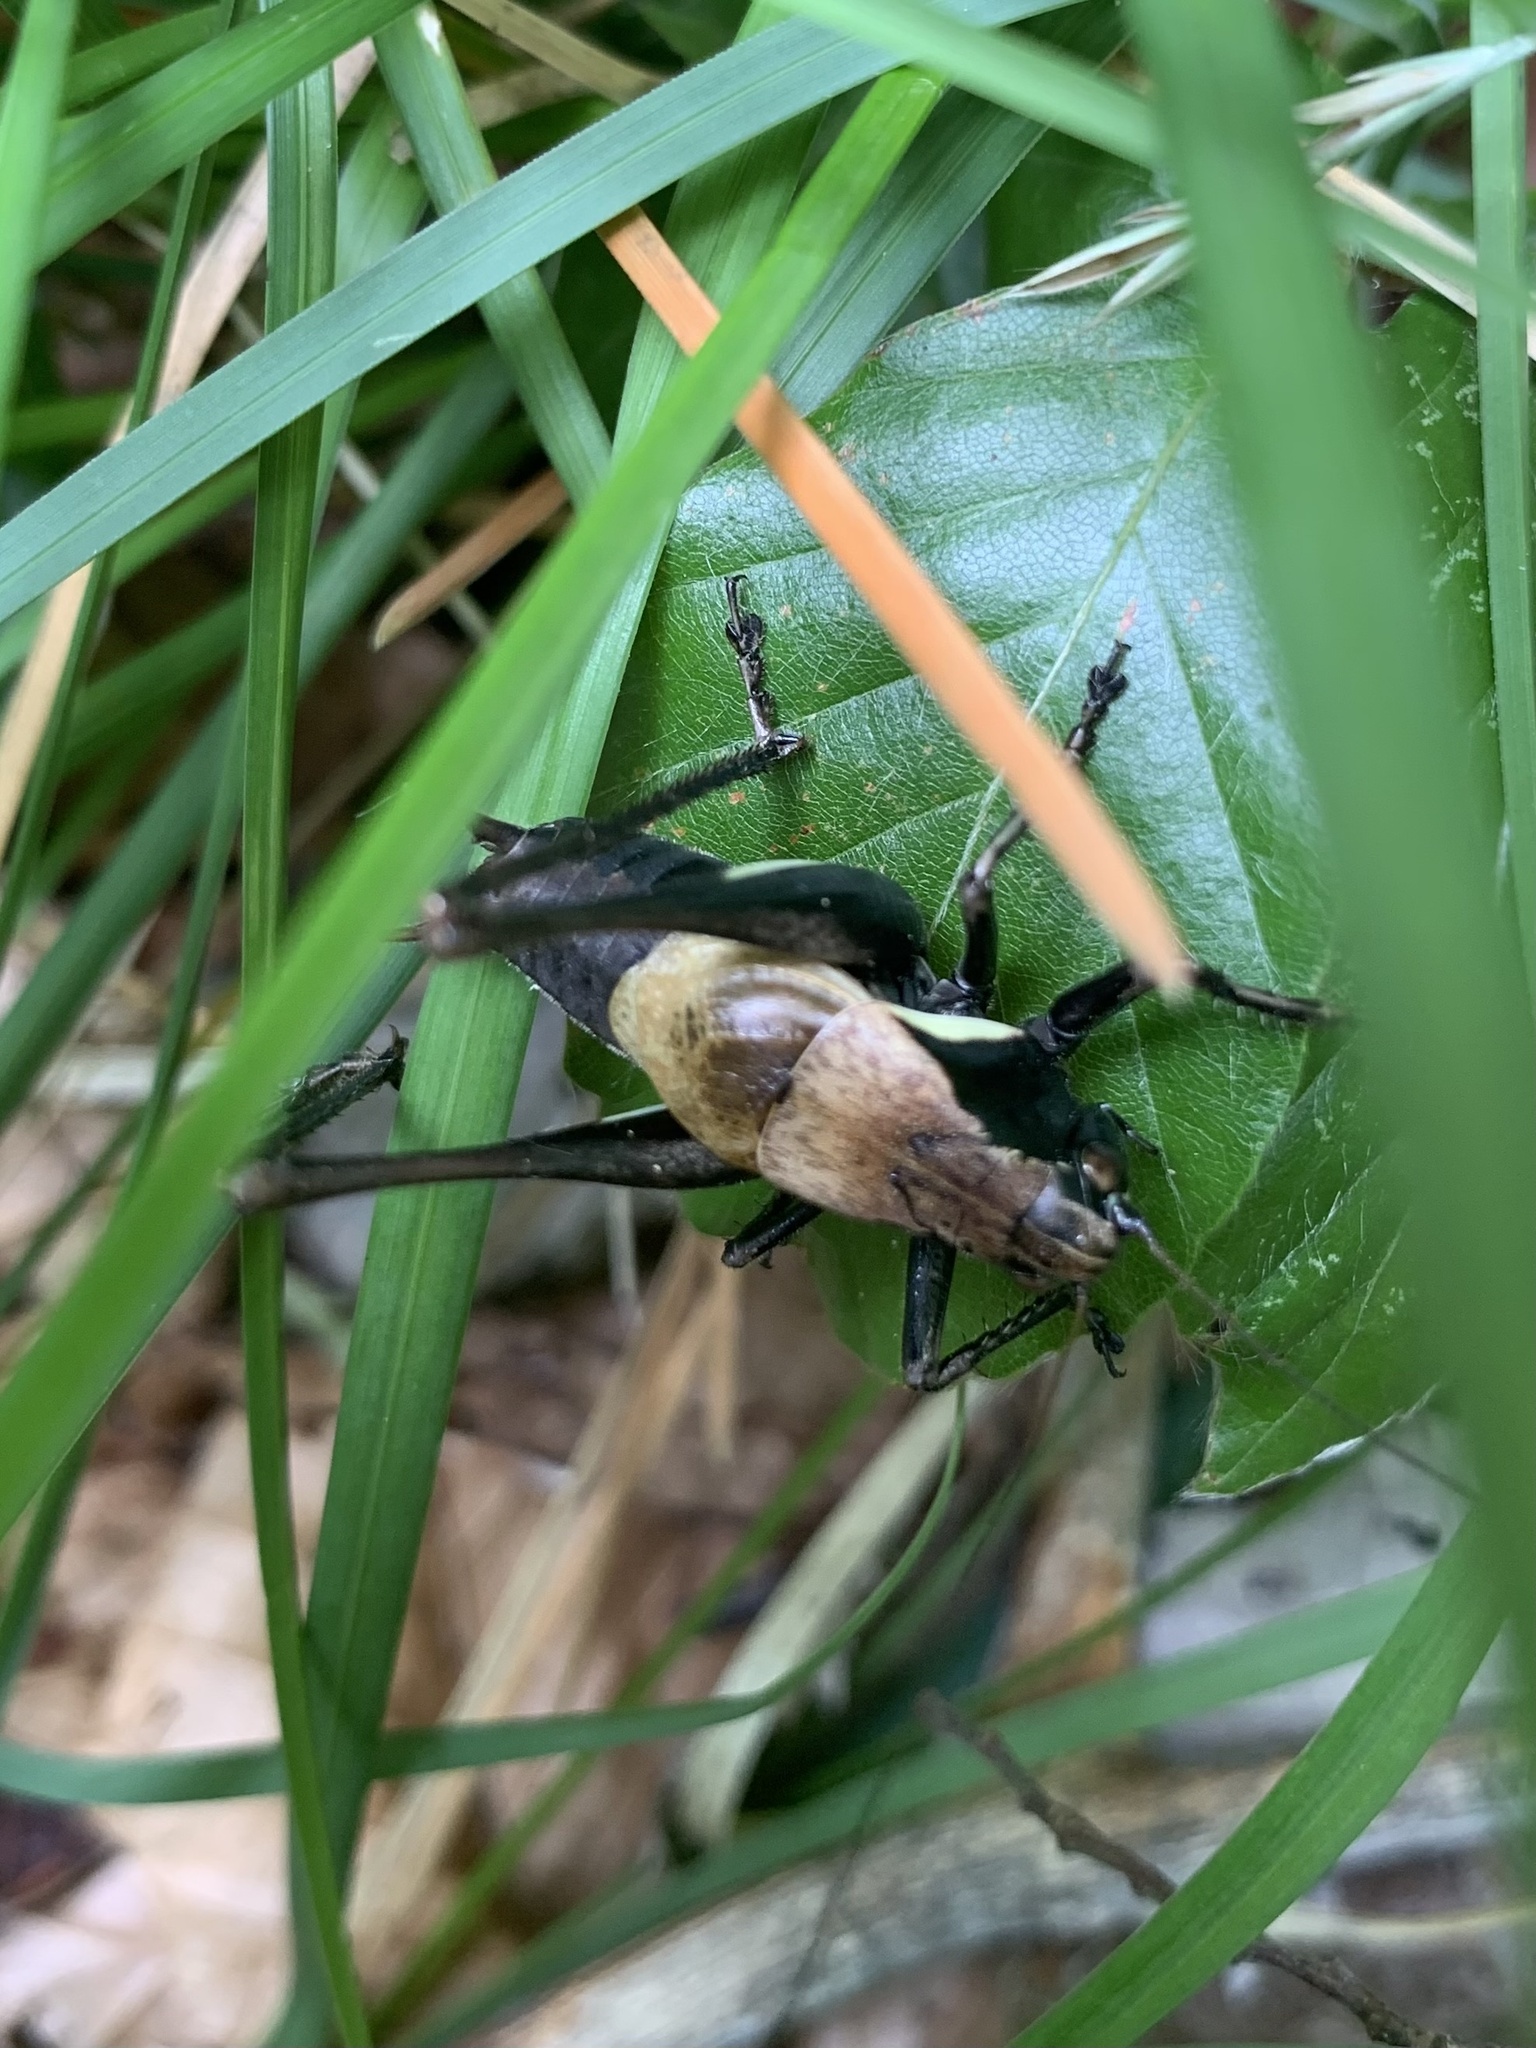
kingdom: Animalia
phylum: Arthropoda
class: Insecta
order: Orthoptera
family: Tettigoniidae
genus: Pholidoptera
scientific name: Pholidoptera aptera
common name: Alpine dark bush-cricket
